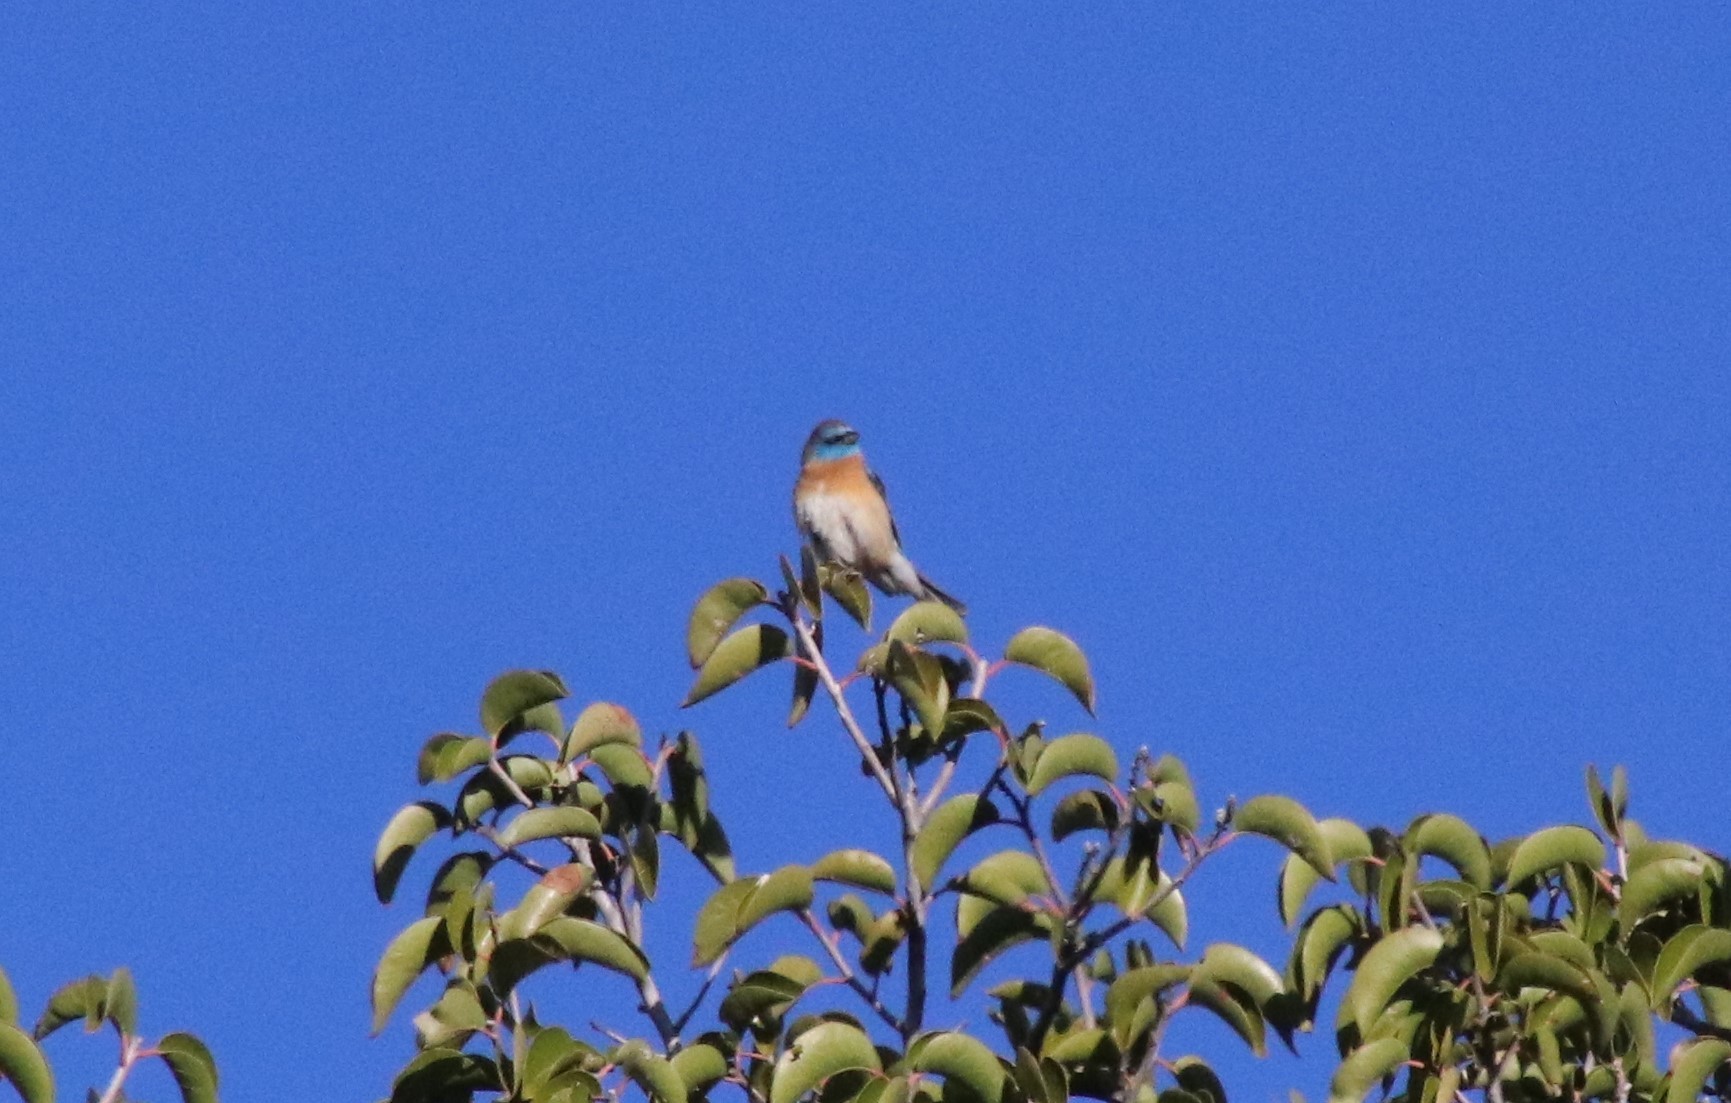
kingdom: Animalia
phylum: Chordata
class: Aves
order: Passeriformes
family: Cardinalidae
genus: Passerina
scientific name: Passerina amoena
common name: Lazuli bunting
